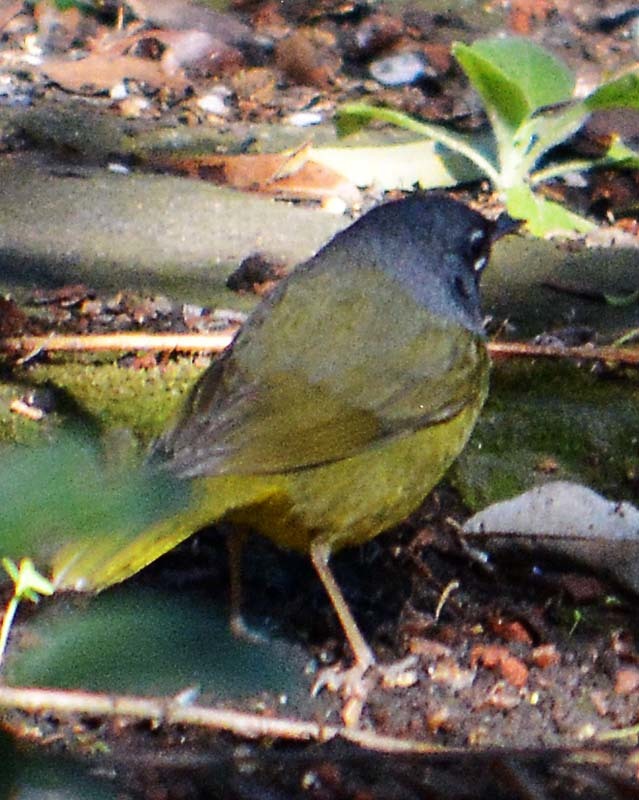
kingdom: Animalia
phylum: Chordata
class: Aves
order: Passeriformes
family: Parulidae
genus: Geothlypis
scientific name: Geothlypis tolmiei
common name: Macgillivray's warbler
